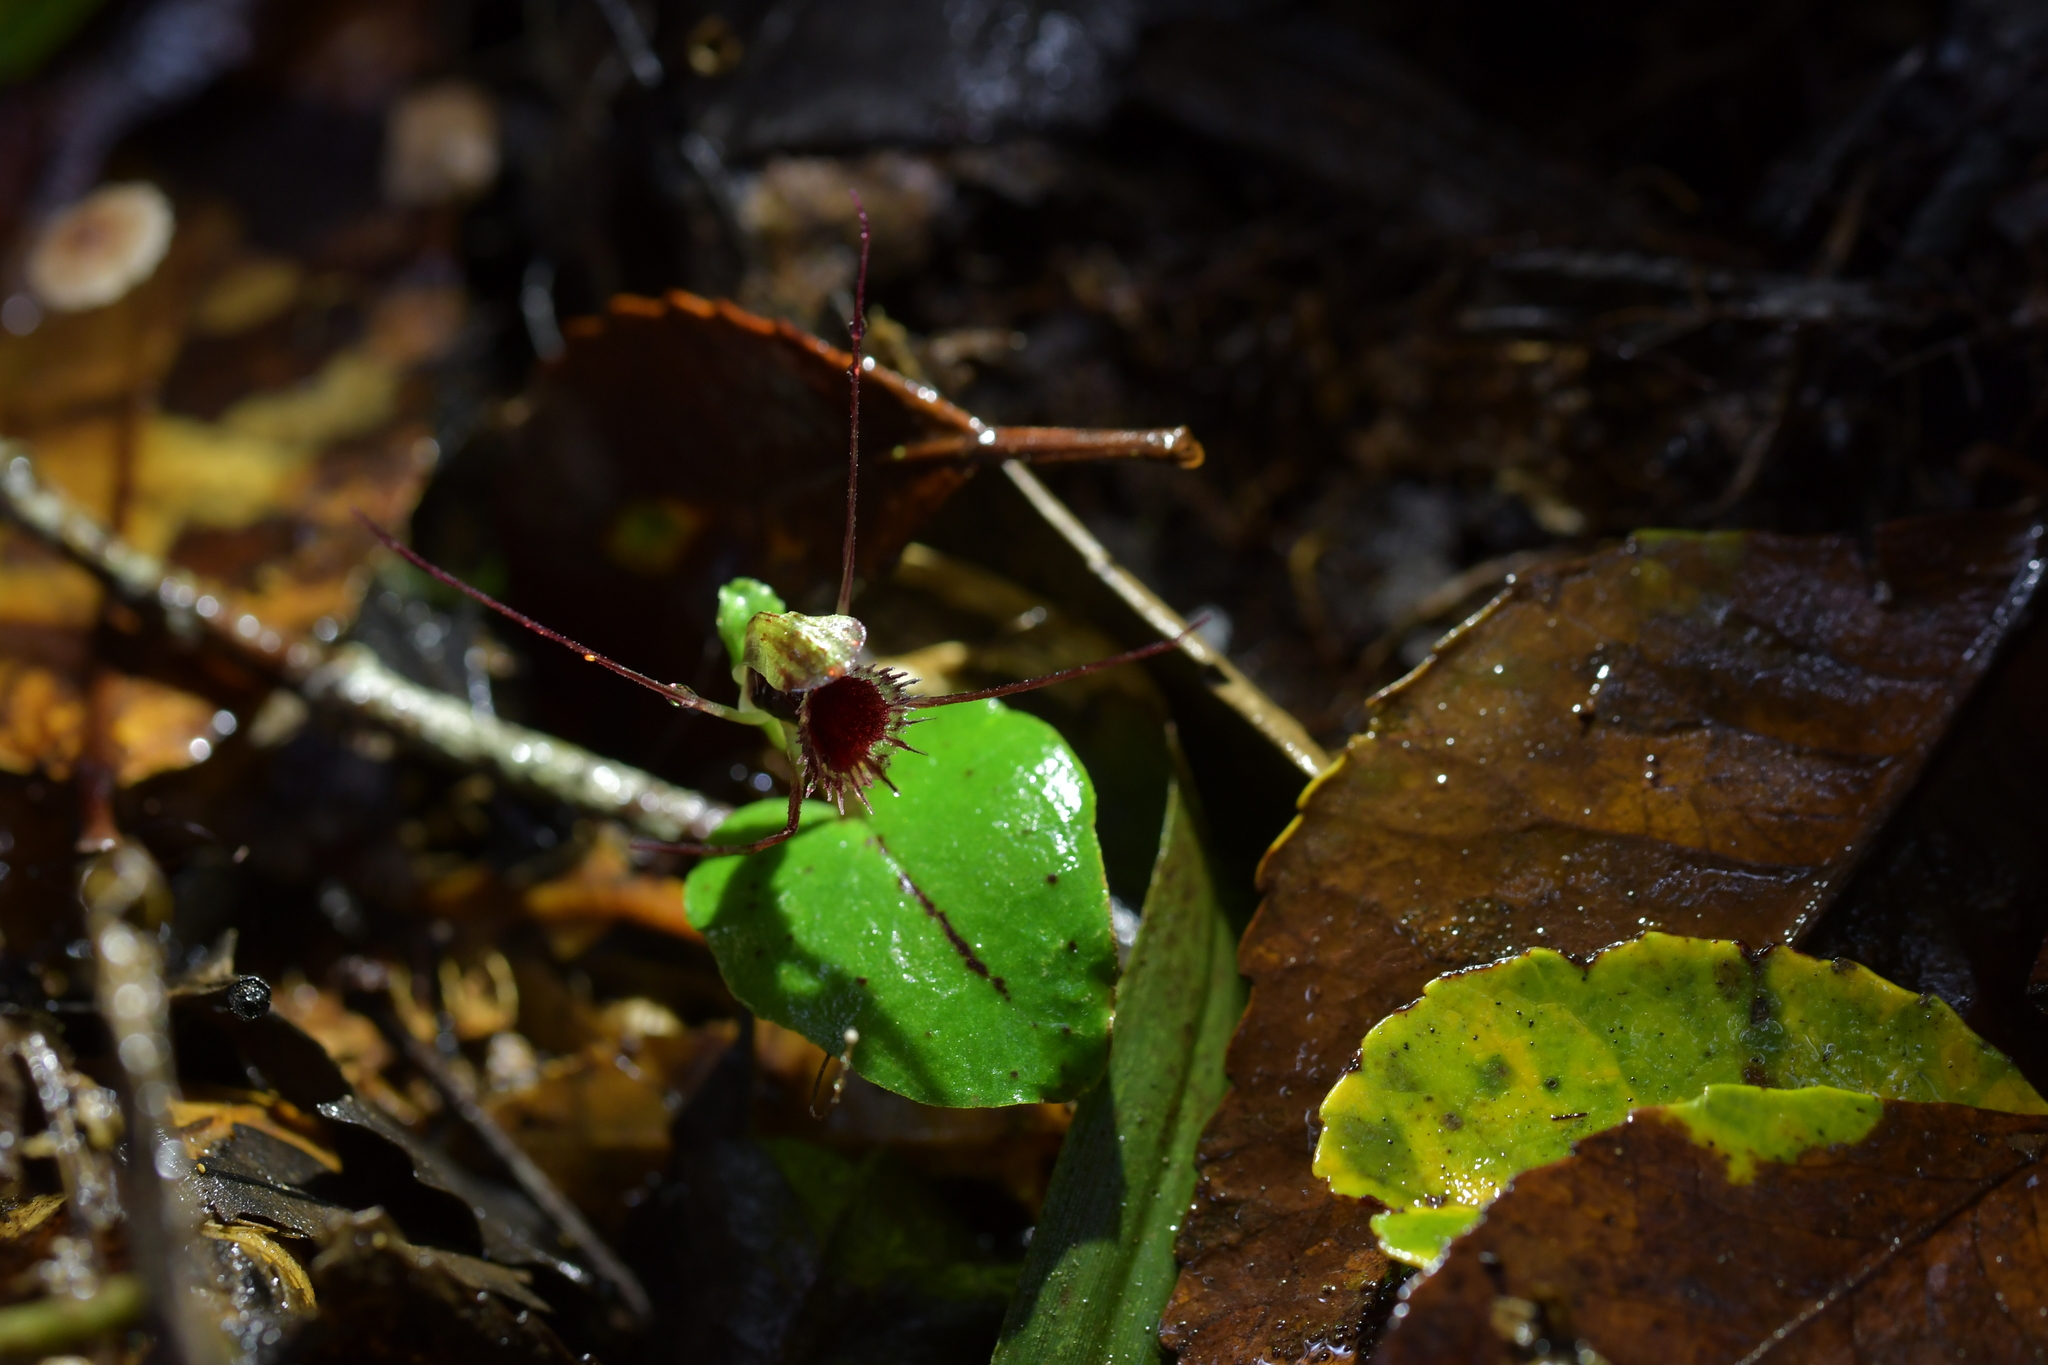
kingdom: Plantae
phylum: Tracheophyta
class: Liliopsida
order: Asparagales
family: Orchidaceae
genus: Corybas
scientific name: Corybas oblongus
